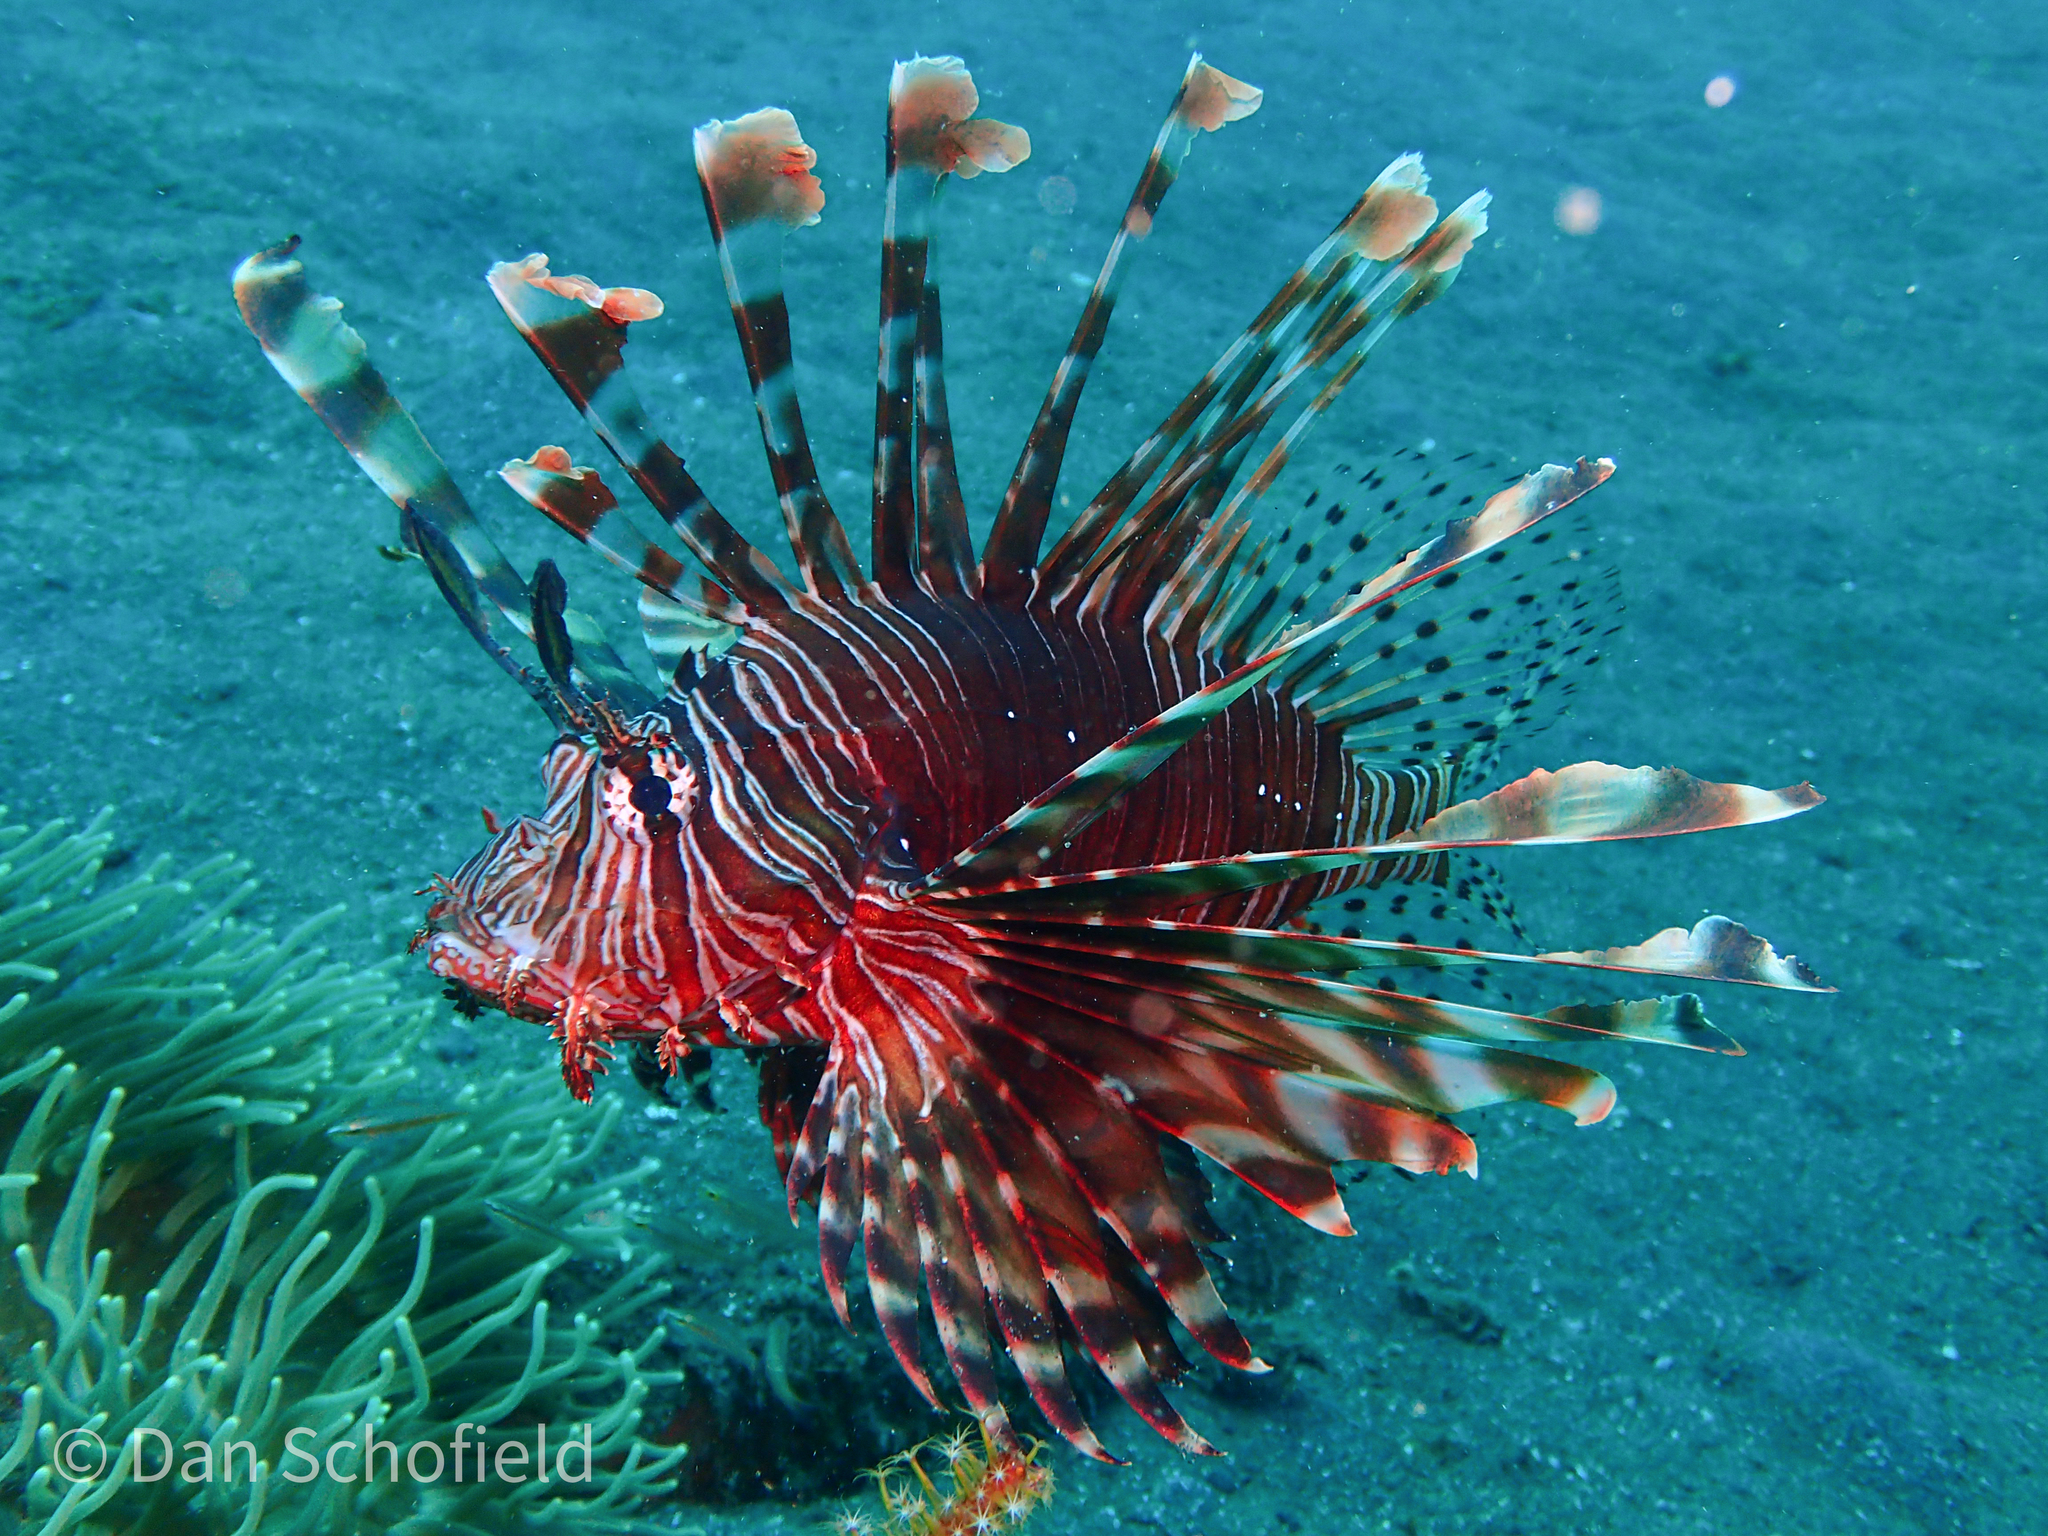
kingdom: Animalia
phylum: Chordata
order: Scorpaeniformes
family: Scorpaenidae
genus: Pterois
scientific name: Pterois volitans
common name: Lionfish
